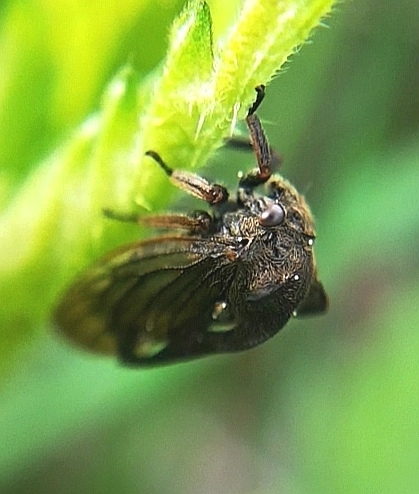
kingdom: Animalia
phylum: Arthropoda
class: Insecta
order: Hemiptera
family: Membracidae
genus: Centrotus
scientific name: Centrotus cornuta
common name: Treehopper
